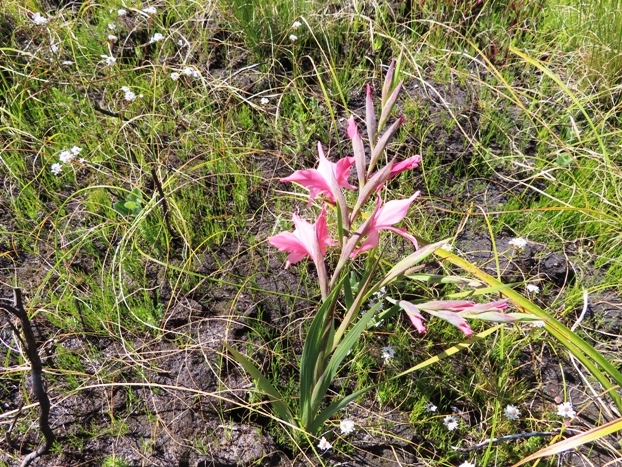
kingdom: Plantae
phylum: Tracheophyta
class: Liliopsida
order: Asparagales
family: Iridaceae
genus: Gladiolus
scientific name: Gladiolus carneus
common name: Painted-lady
